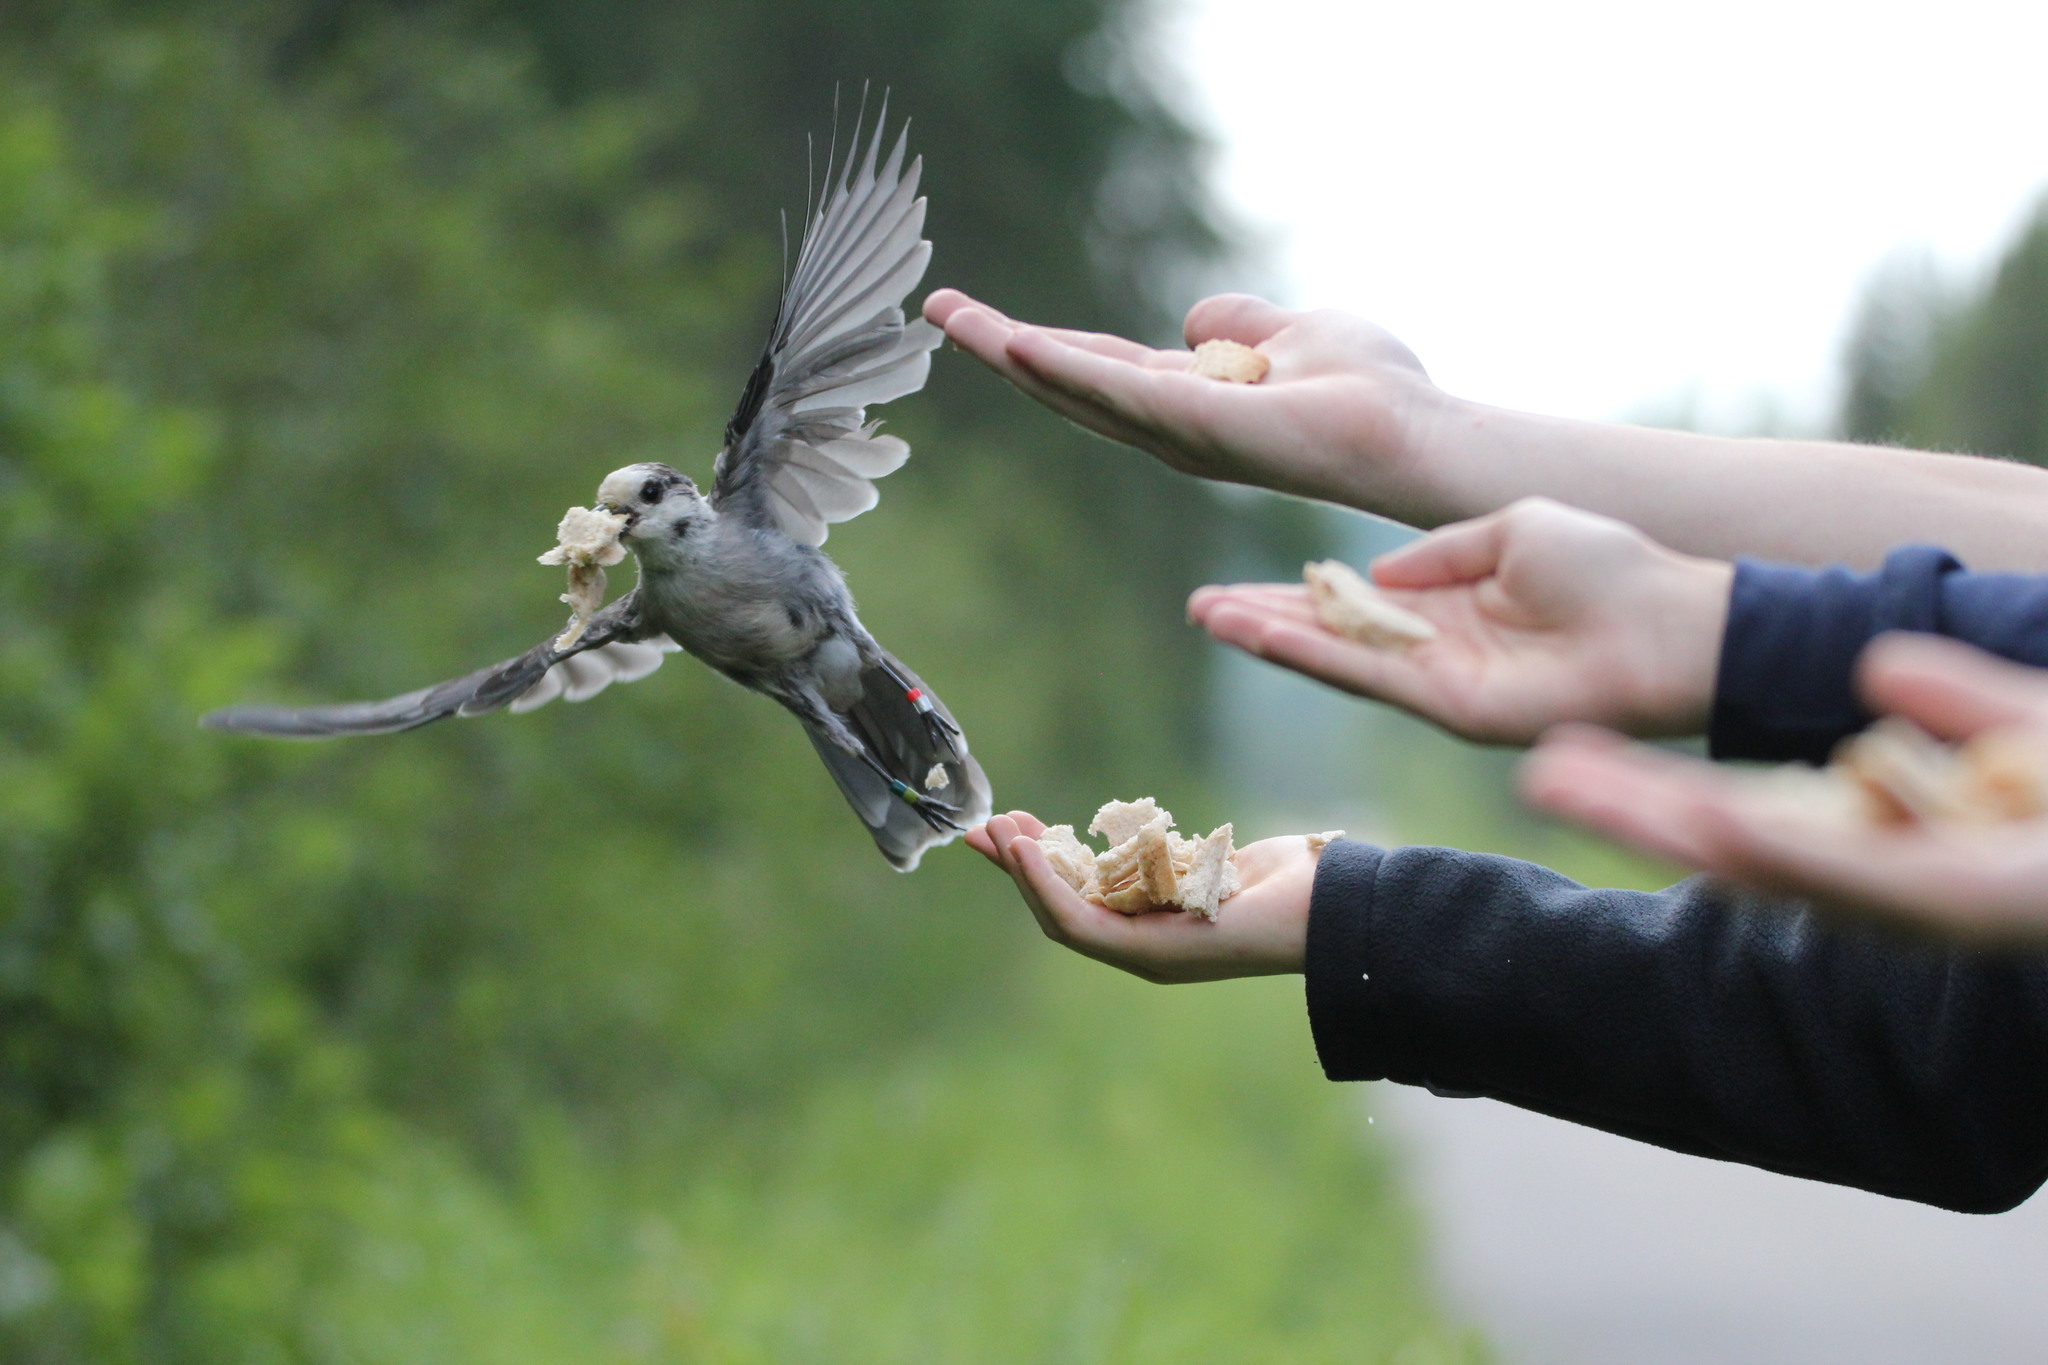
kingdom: Animalia
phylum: Chordata
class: Aves
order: Passeriformes
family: Corvidae
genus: Perisoreus
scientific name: Perisoreus canadensis
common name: Gray jay
